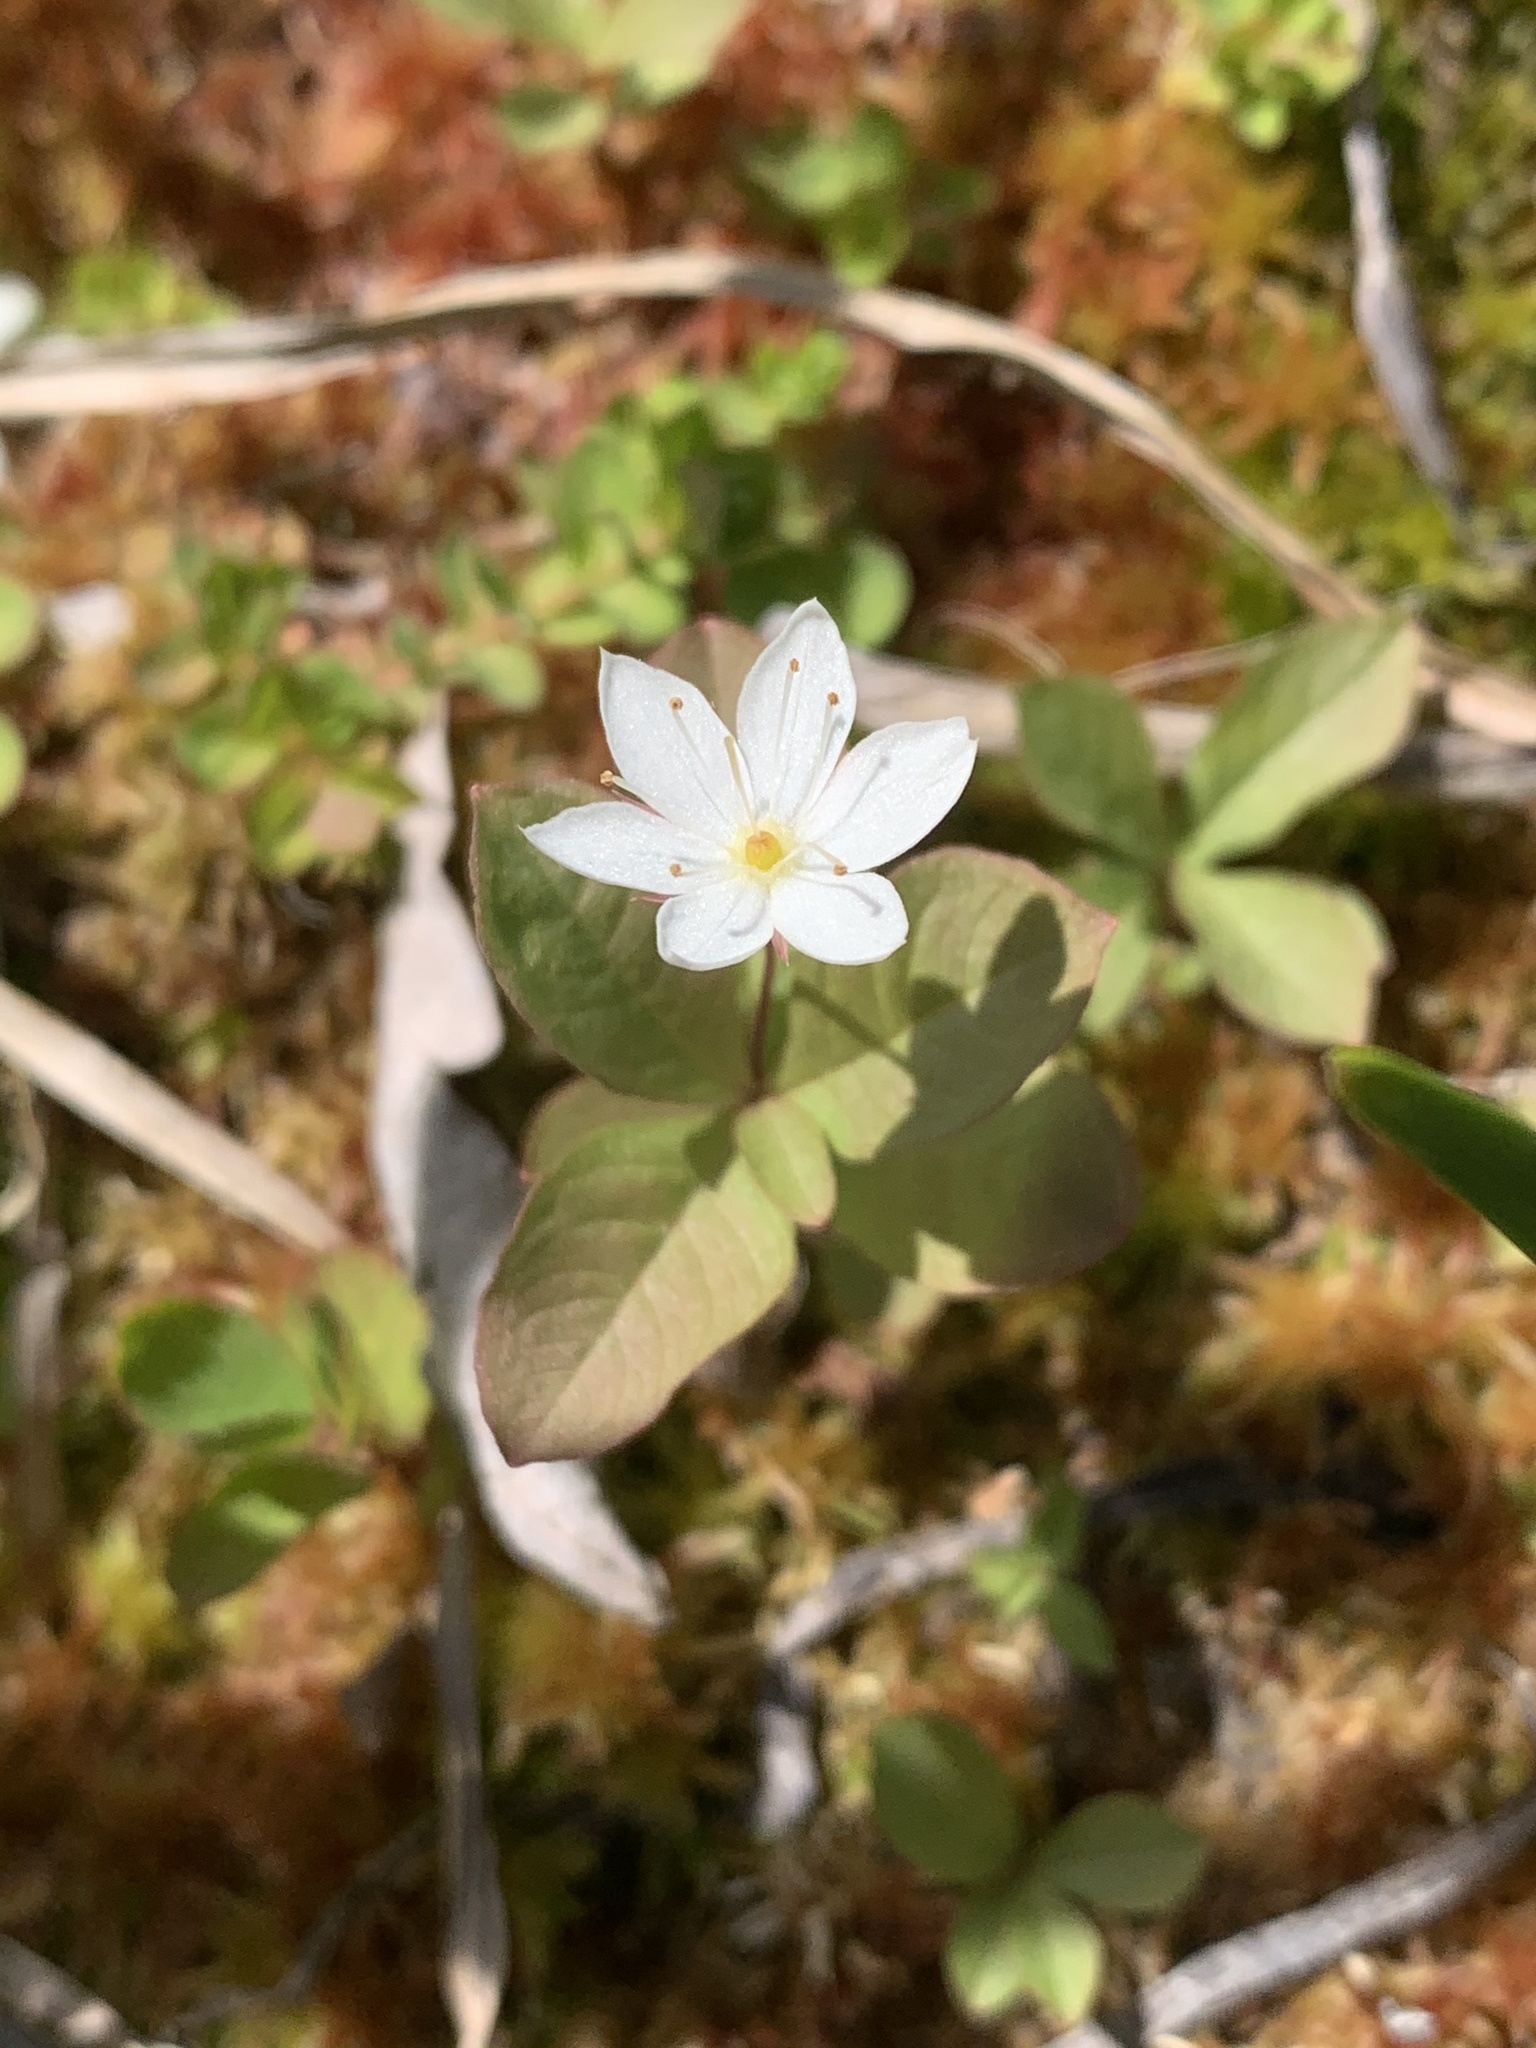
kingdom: Plantae
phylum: Tracheophyta
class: Magnoliopsida
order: Ericales
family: Primulaceae
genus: Lysimachia
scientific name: Lysimachia europaea
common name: Arctic starflower
